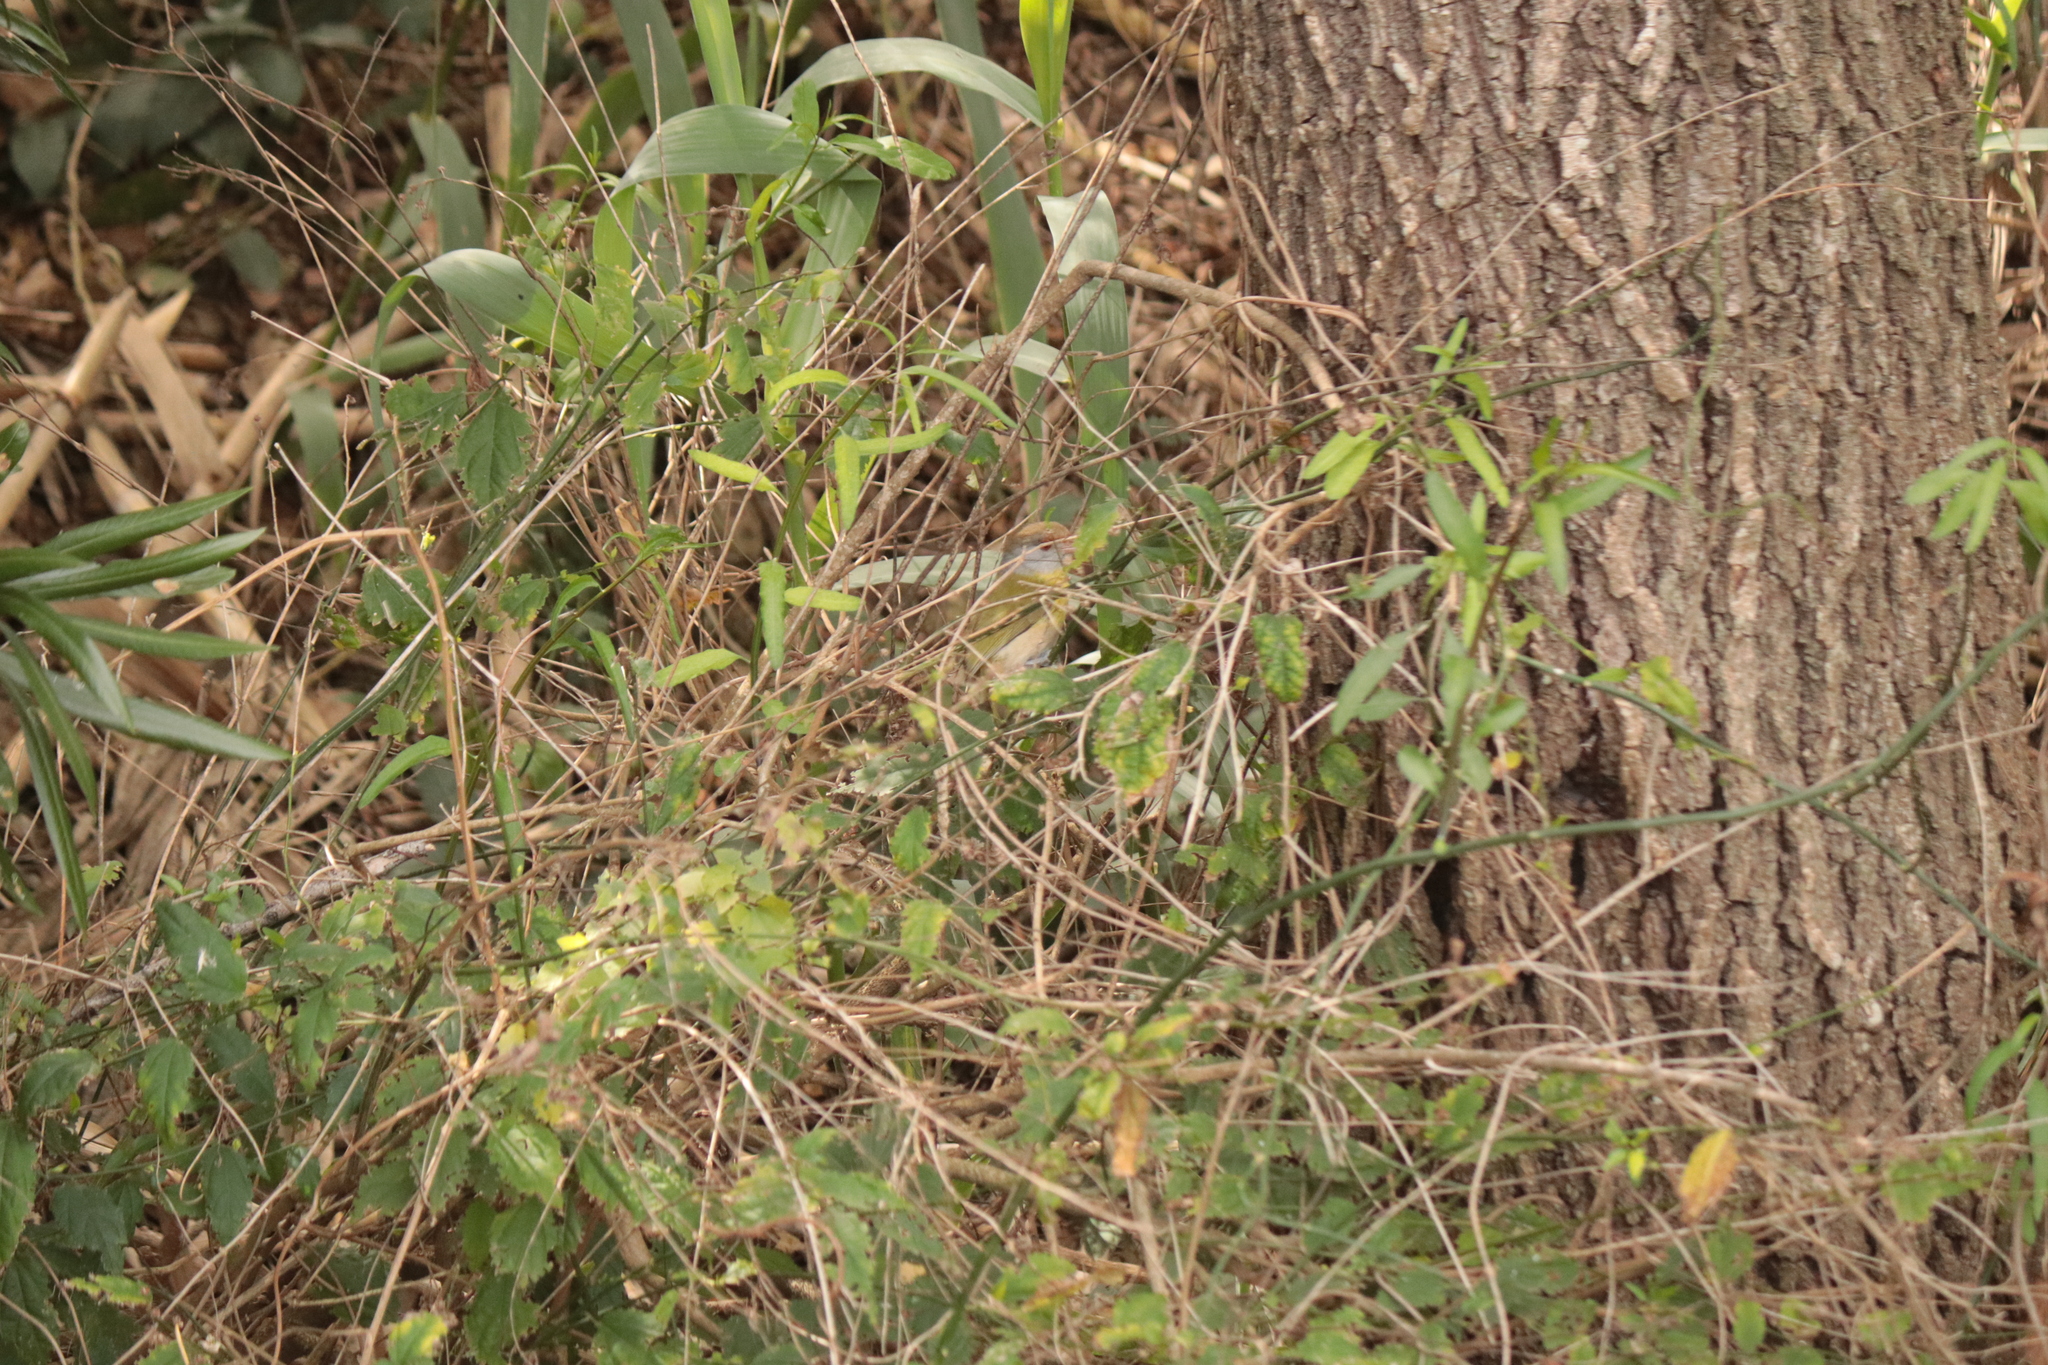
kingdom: Animalia
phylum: Chordata
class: Aves
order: Passeriformes
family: Vireonidae
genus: Cyclarhis
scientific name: Cyclarhis gujanensis
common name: Rufous-browed peppershrike
